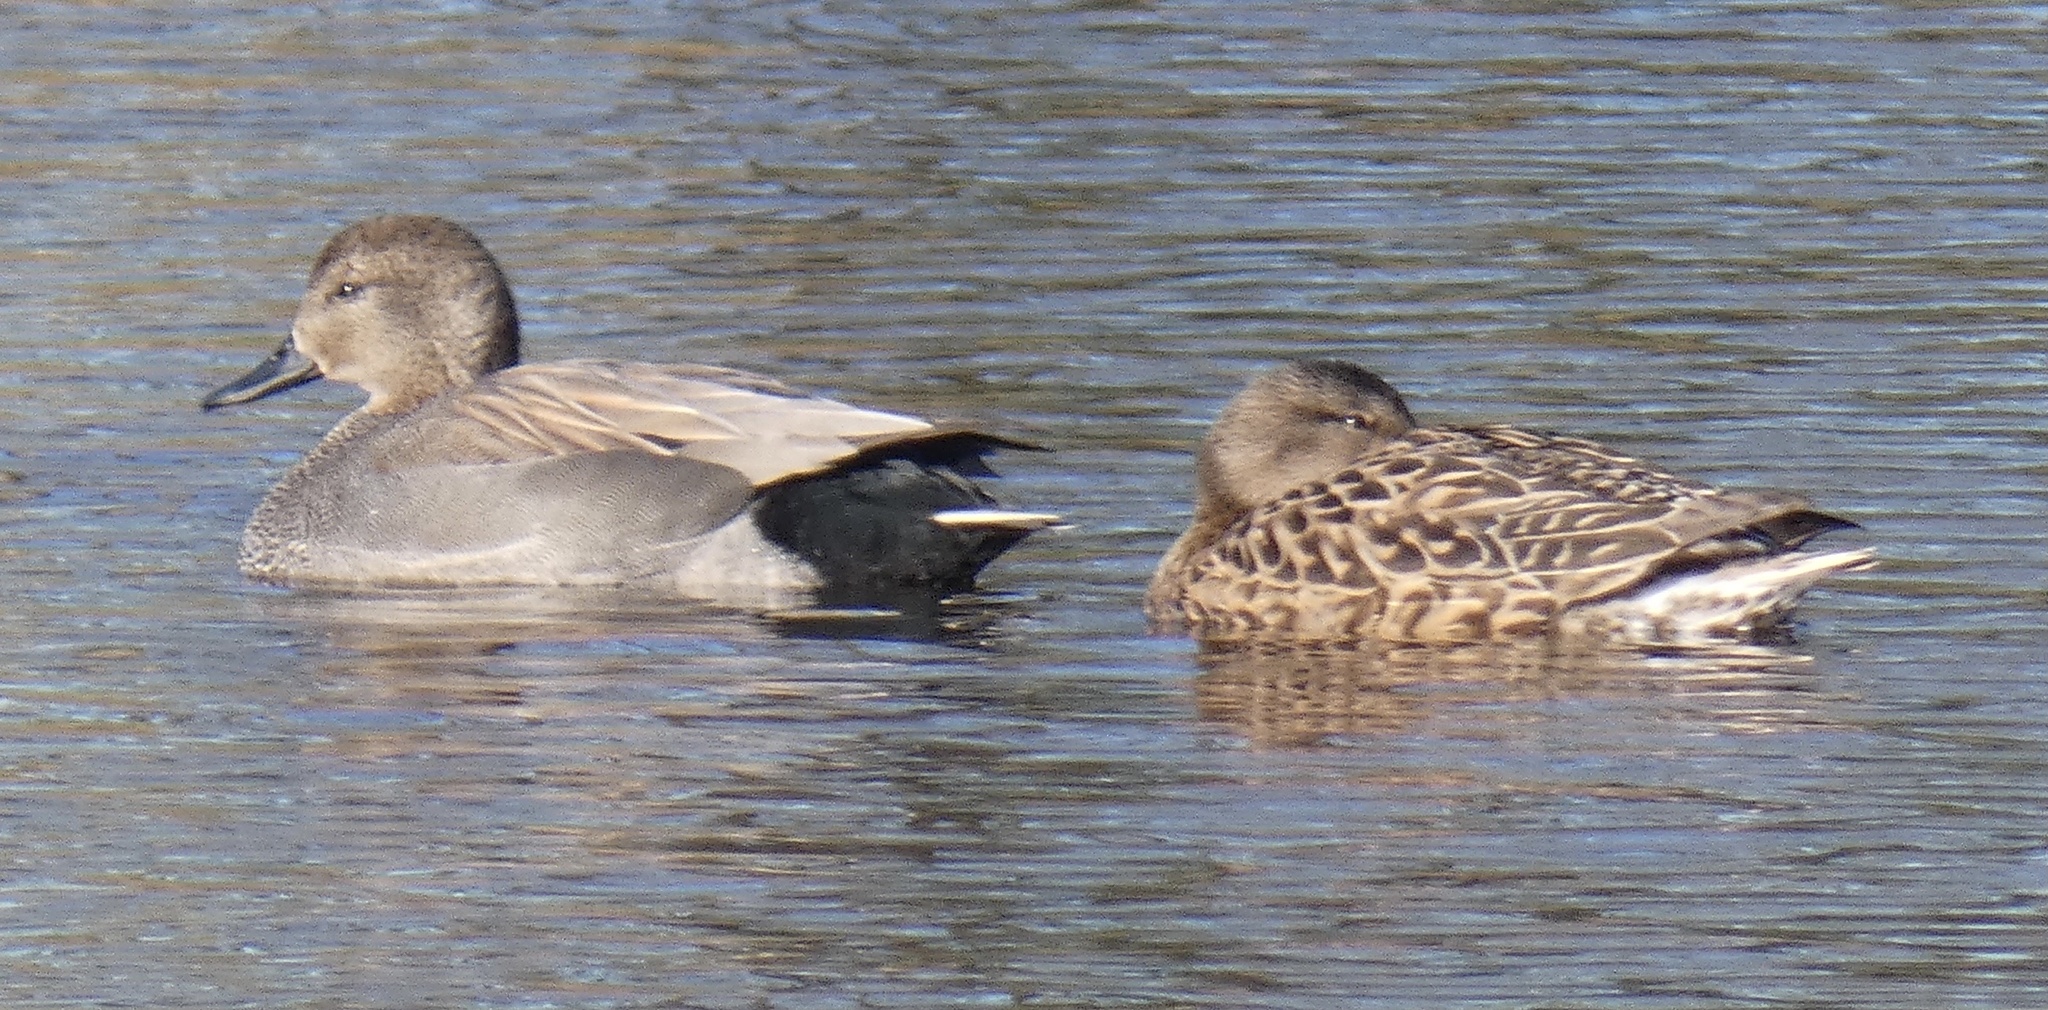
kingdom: Animalia
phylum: Chordata
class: Aves
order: Anseriformes
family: Anatidae
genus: Mareca
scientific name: Mareca strepera
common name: Gadwall
